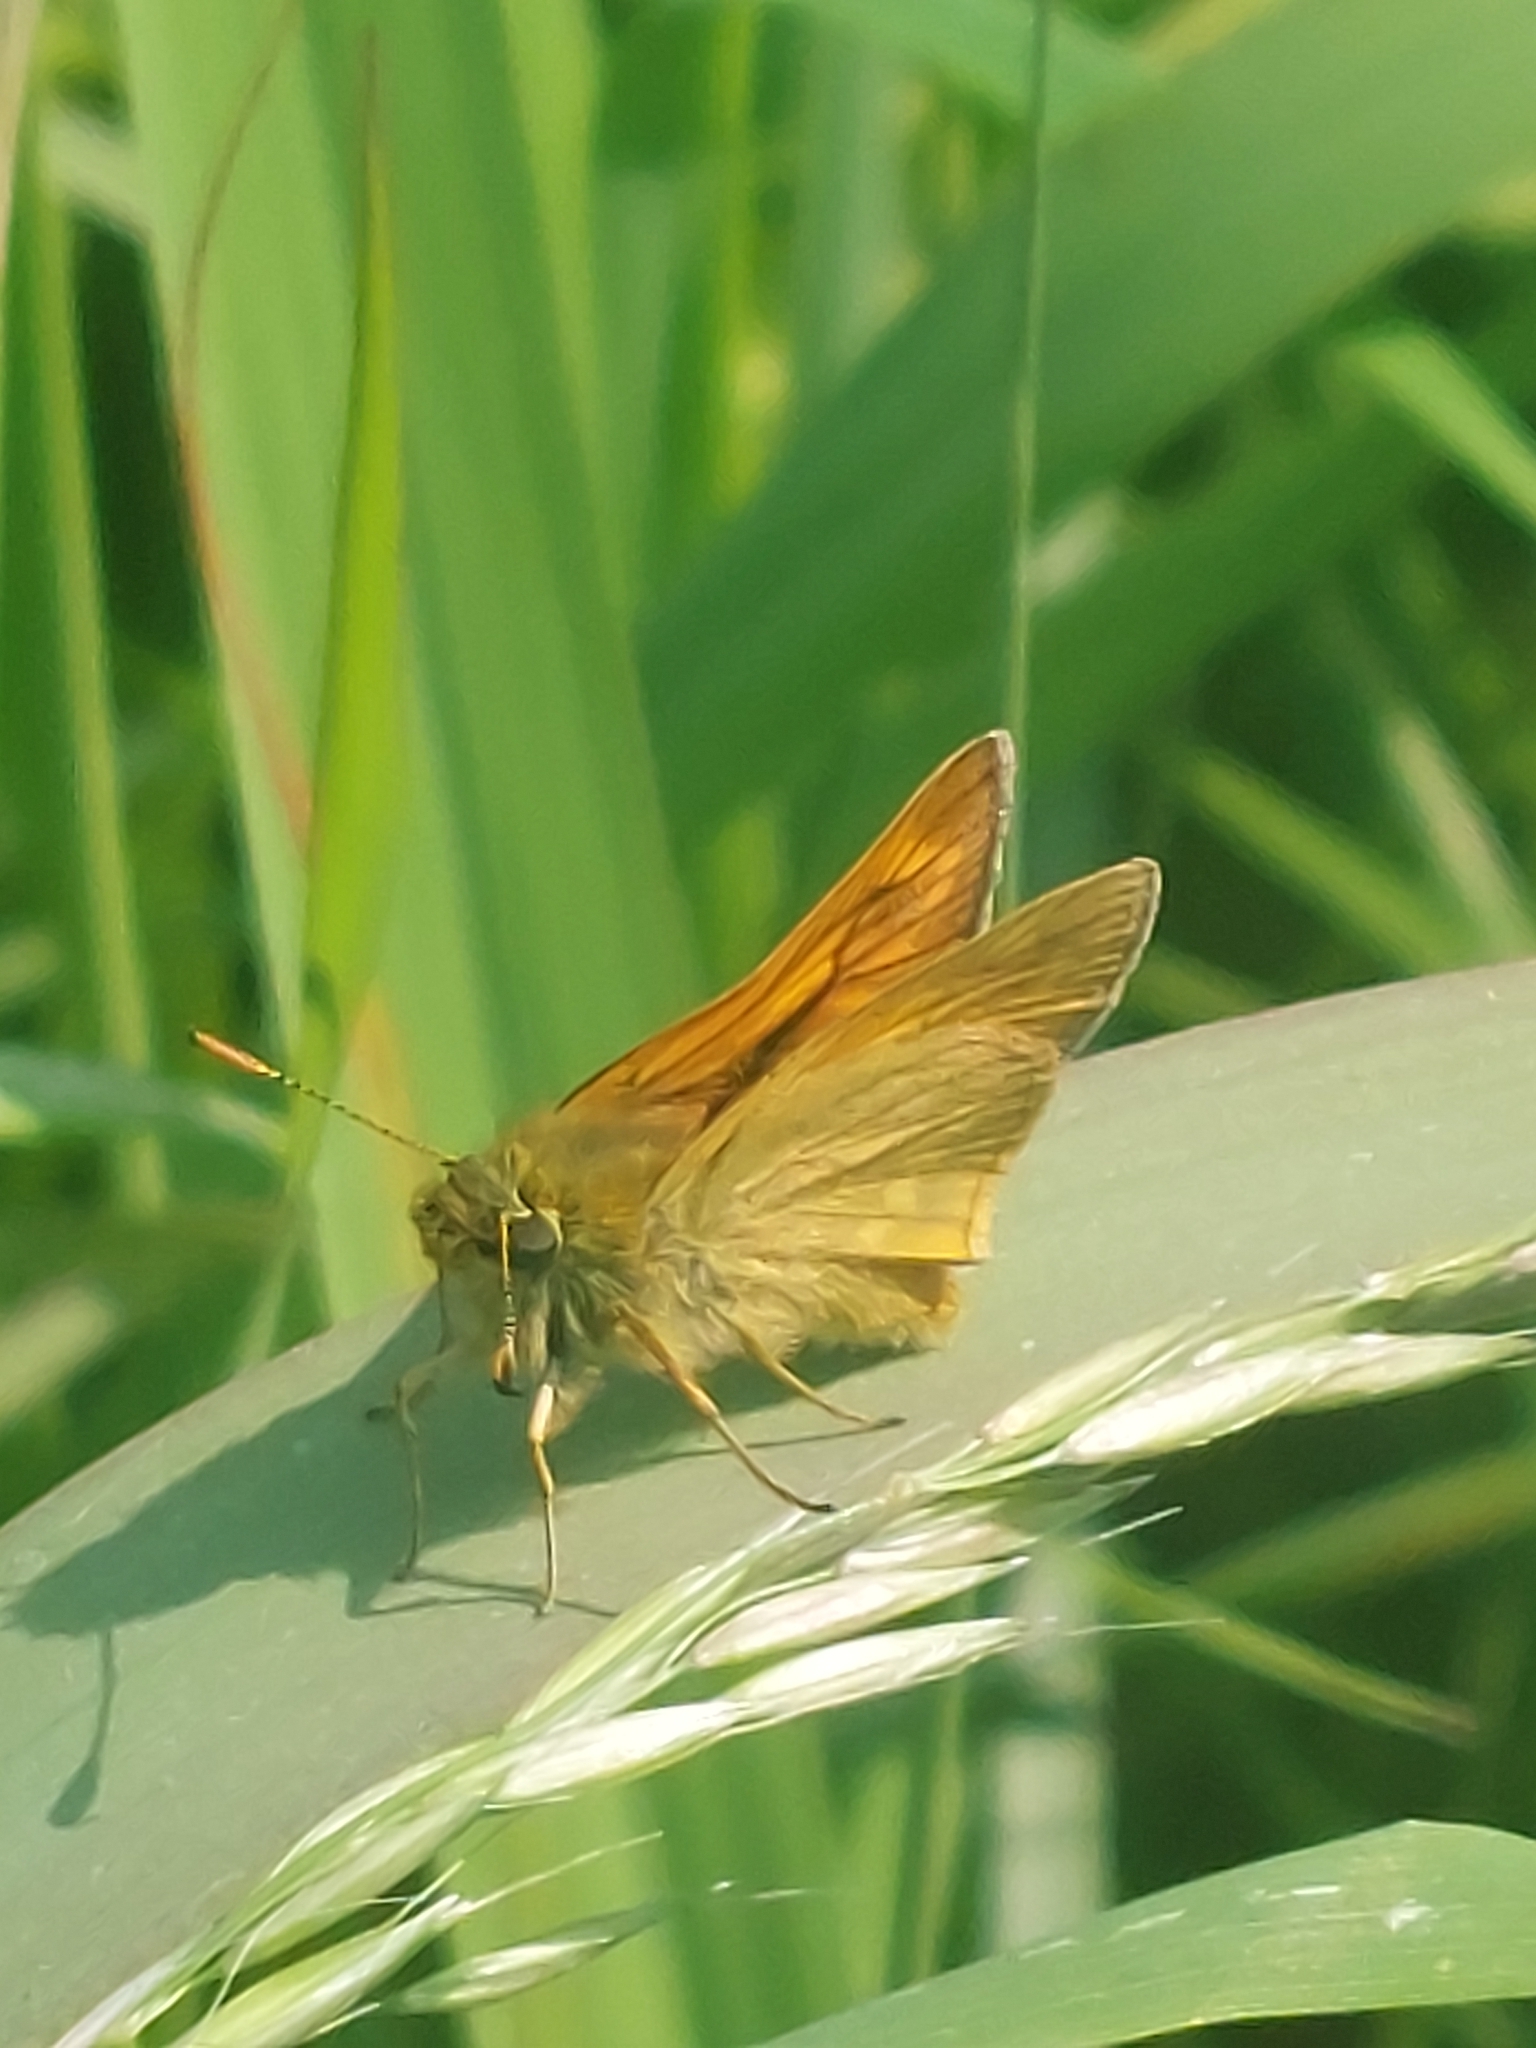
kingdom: Animalia
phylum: Arthropoda
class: Insecta
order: Lepidoptera
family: Hesperiidae
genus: Ochlodes
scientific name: Ochlodes venata
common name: Large skipper
